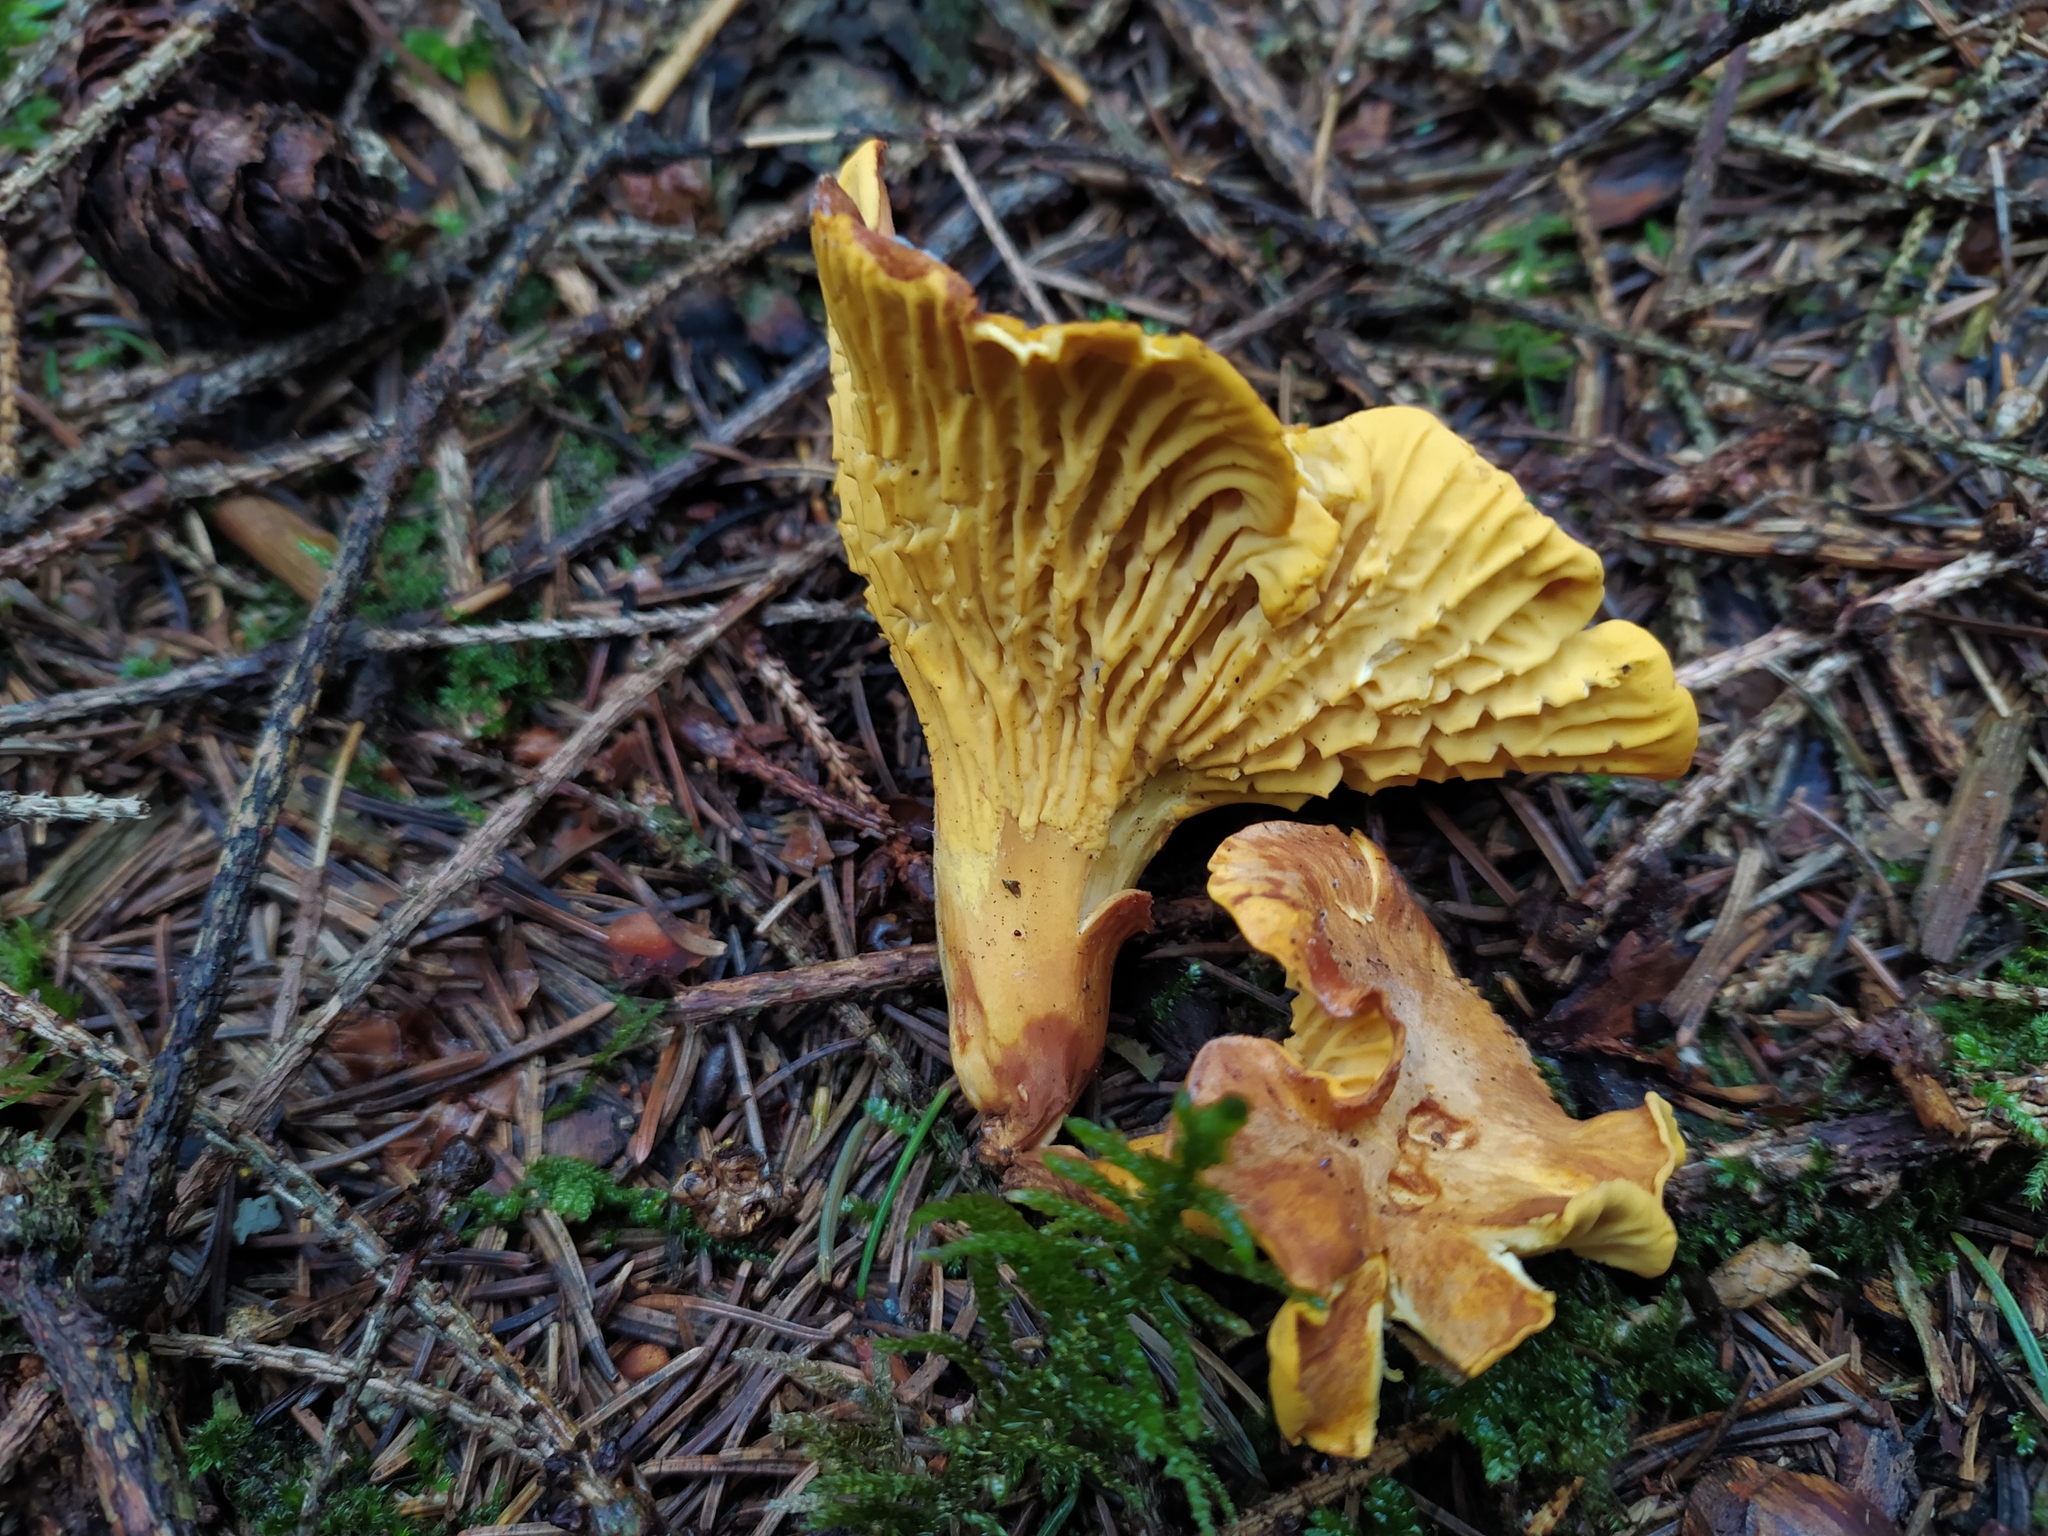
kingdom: Fungi
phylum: Basidiomycota
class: Agaricomycetes
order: Cantharellales
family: Hydnaceae
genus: Cantharellus
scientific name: Cantharellus cibarius
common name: Chanterelle
